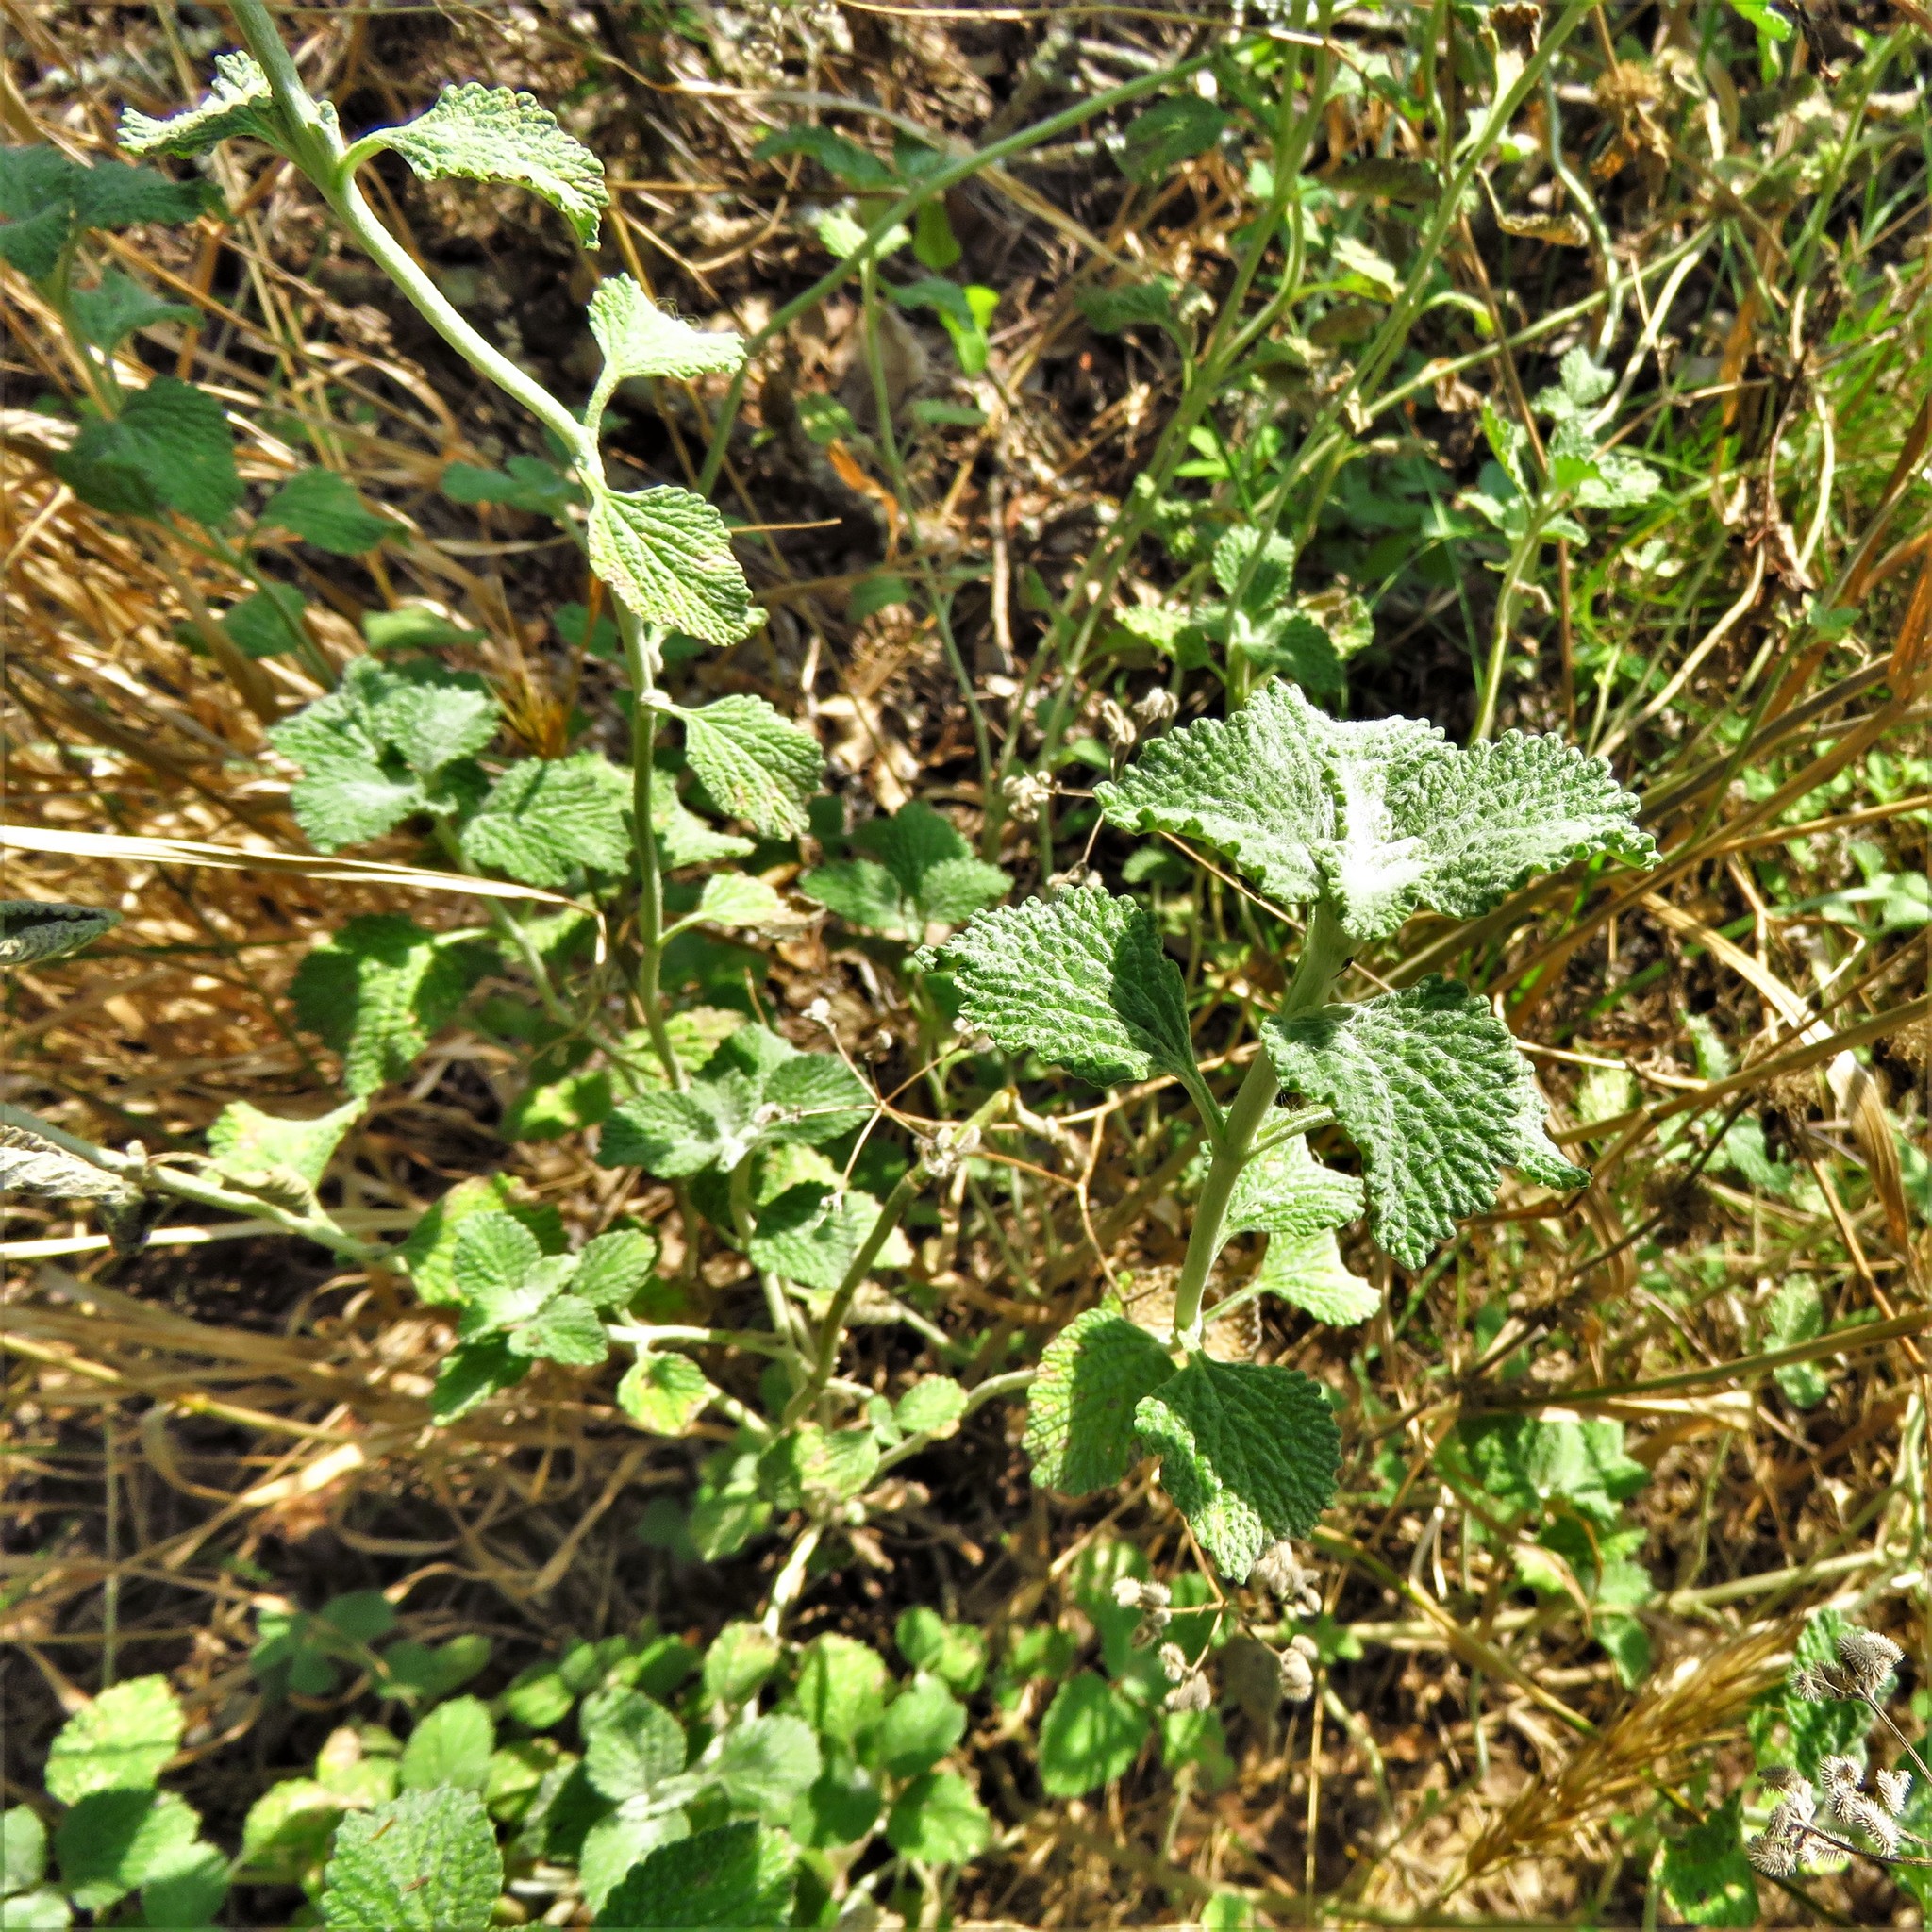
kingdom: Plantae
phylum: Tracheophyta
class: Magnoliopsida
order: Lamiales
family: Lamiaceae
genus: Marrubium
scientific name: Marrubium vulgare
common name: Horehound
